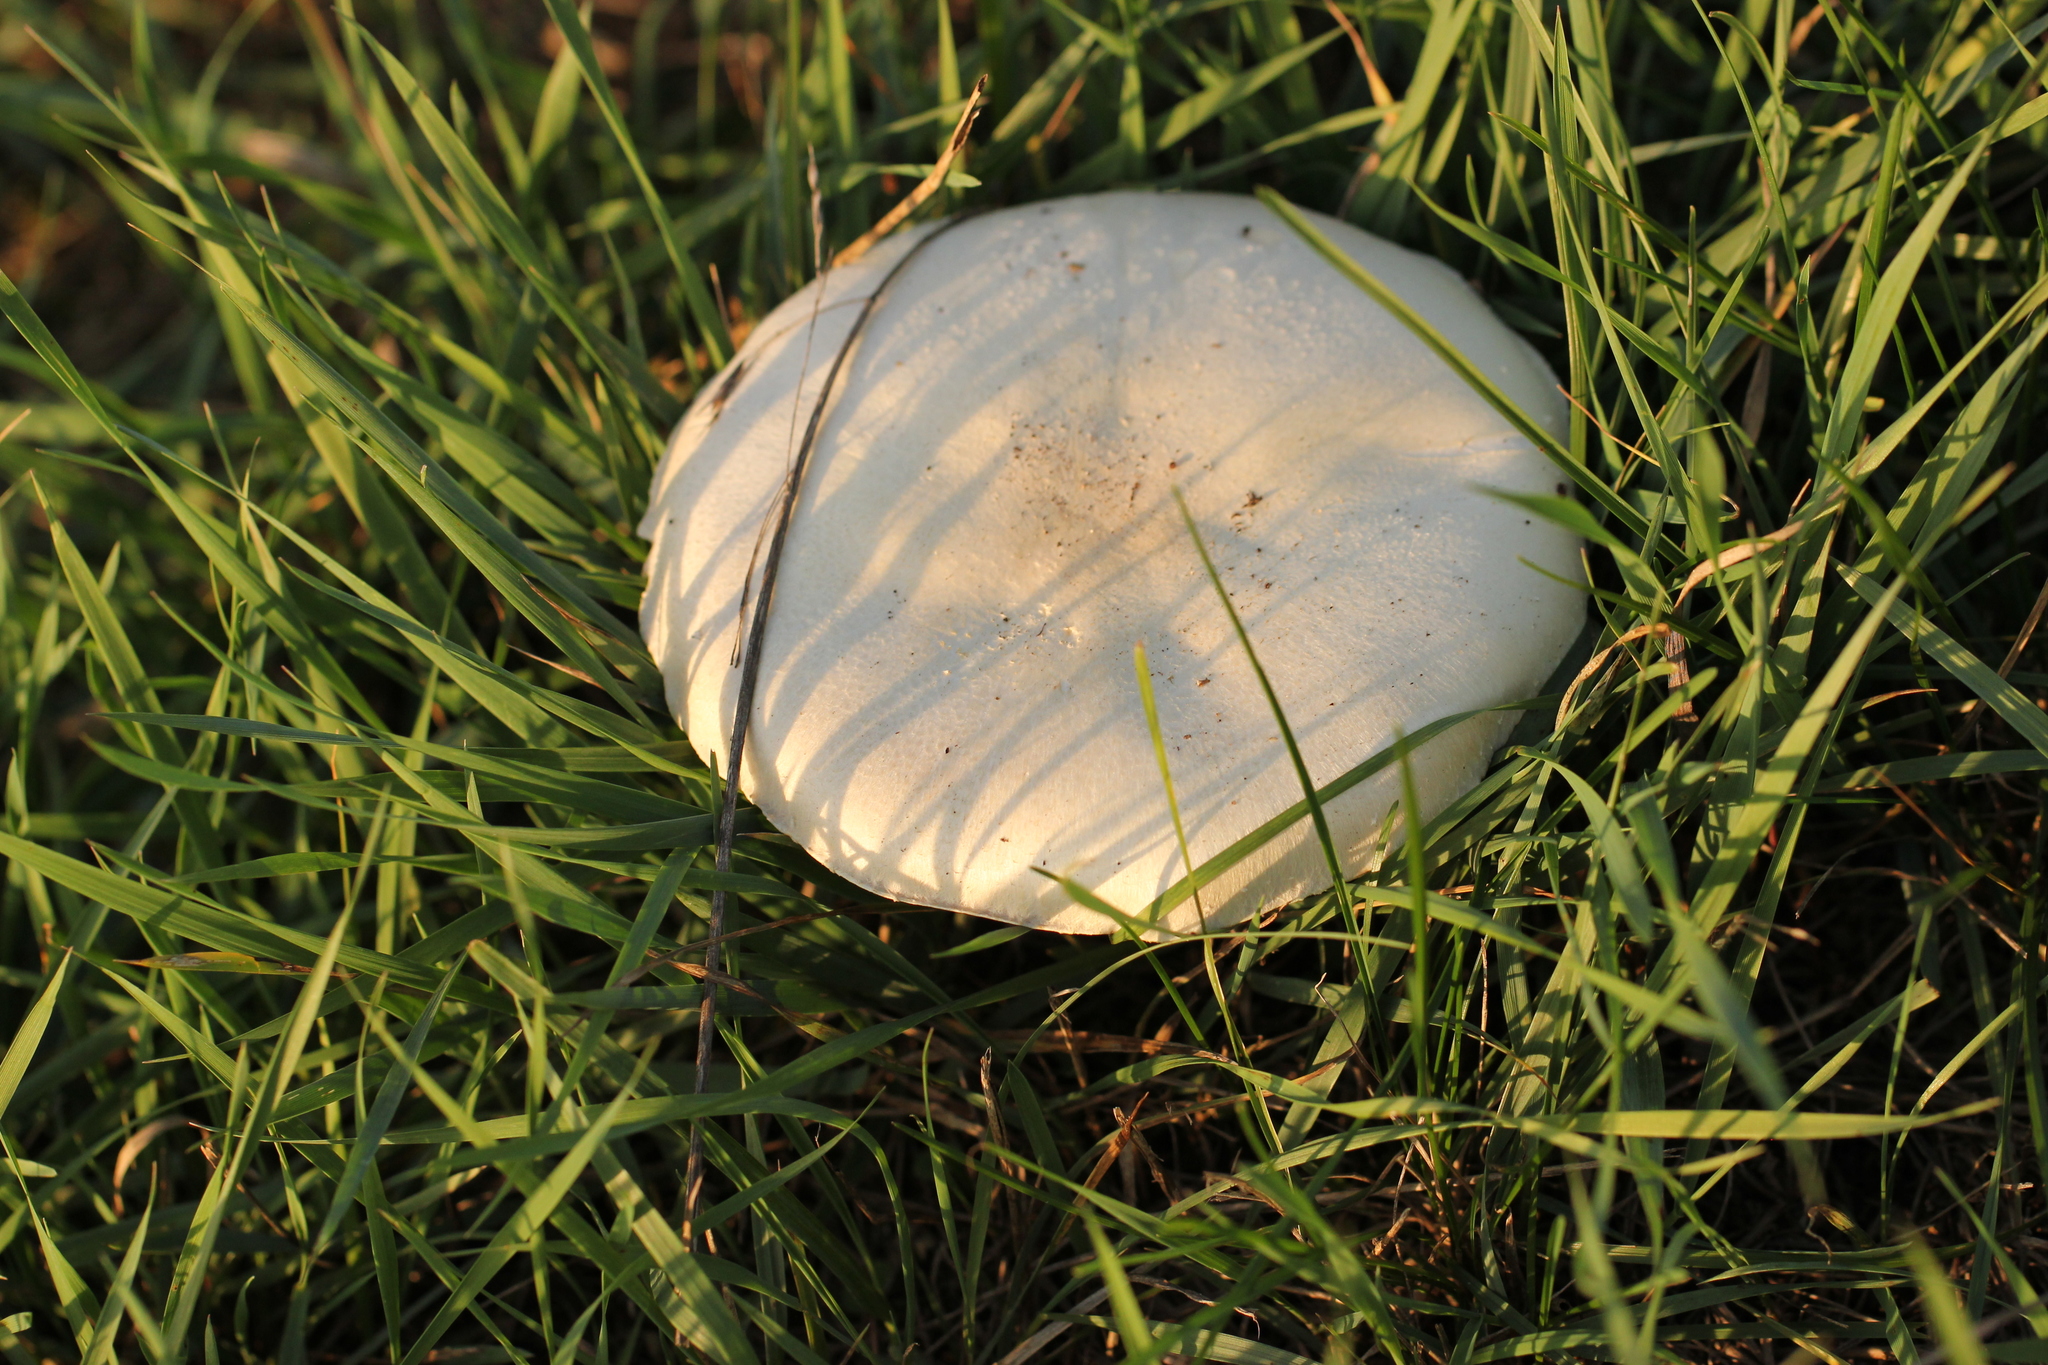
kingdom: Fungi
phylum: Basidiomycota
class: Agaricomycetes
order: Agaricales
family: Agaricaceae
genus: Agaricus
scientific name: Agaricus campestris
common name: Field mushroom
